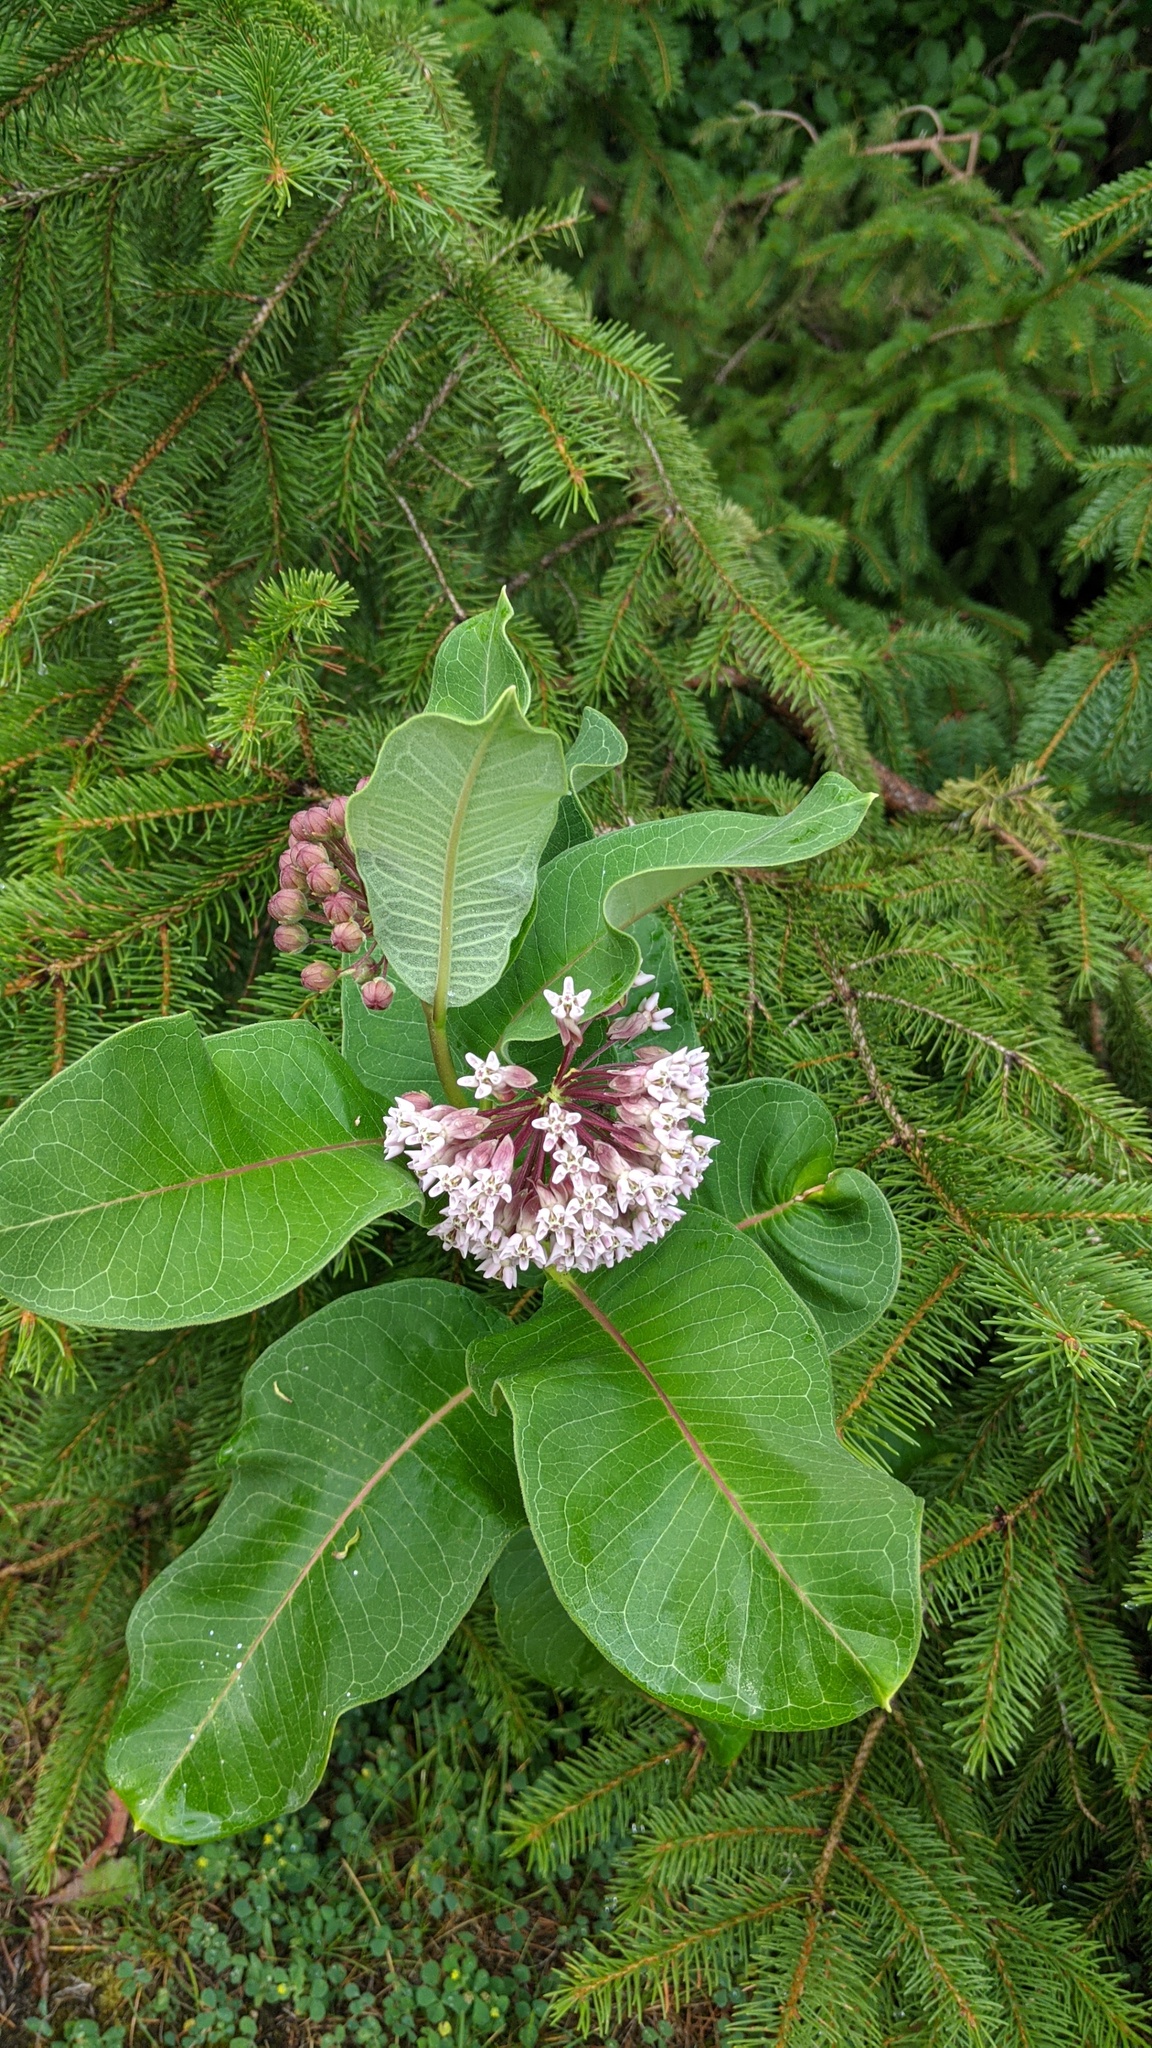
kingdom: Plantae
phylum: Tracheophyta
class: Magnoliopsida
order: Gentianales
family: Apocynaceae
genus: Asclepias
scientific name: Asclepias syriaca
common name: Common milkweed
